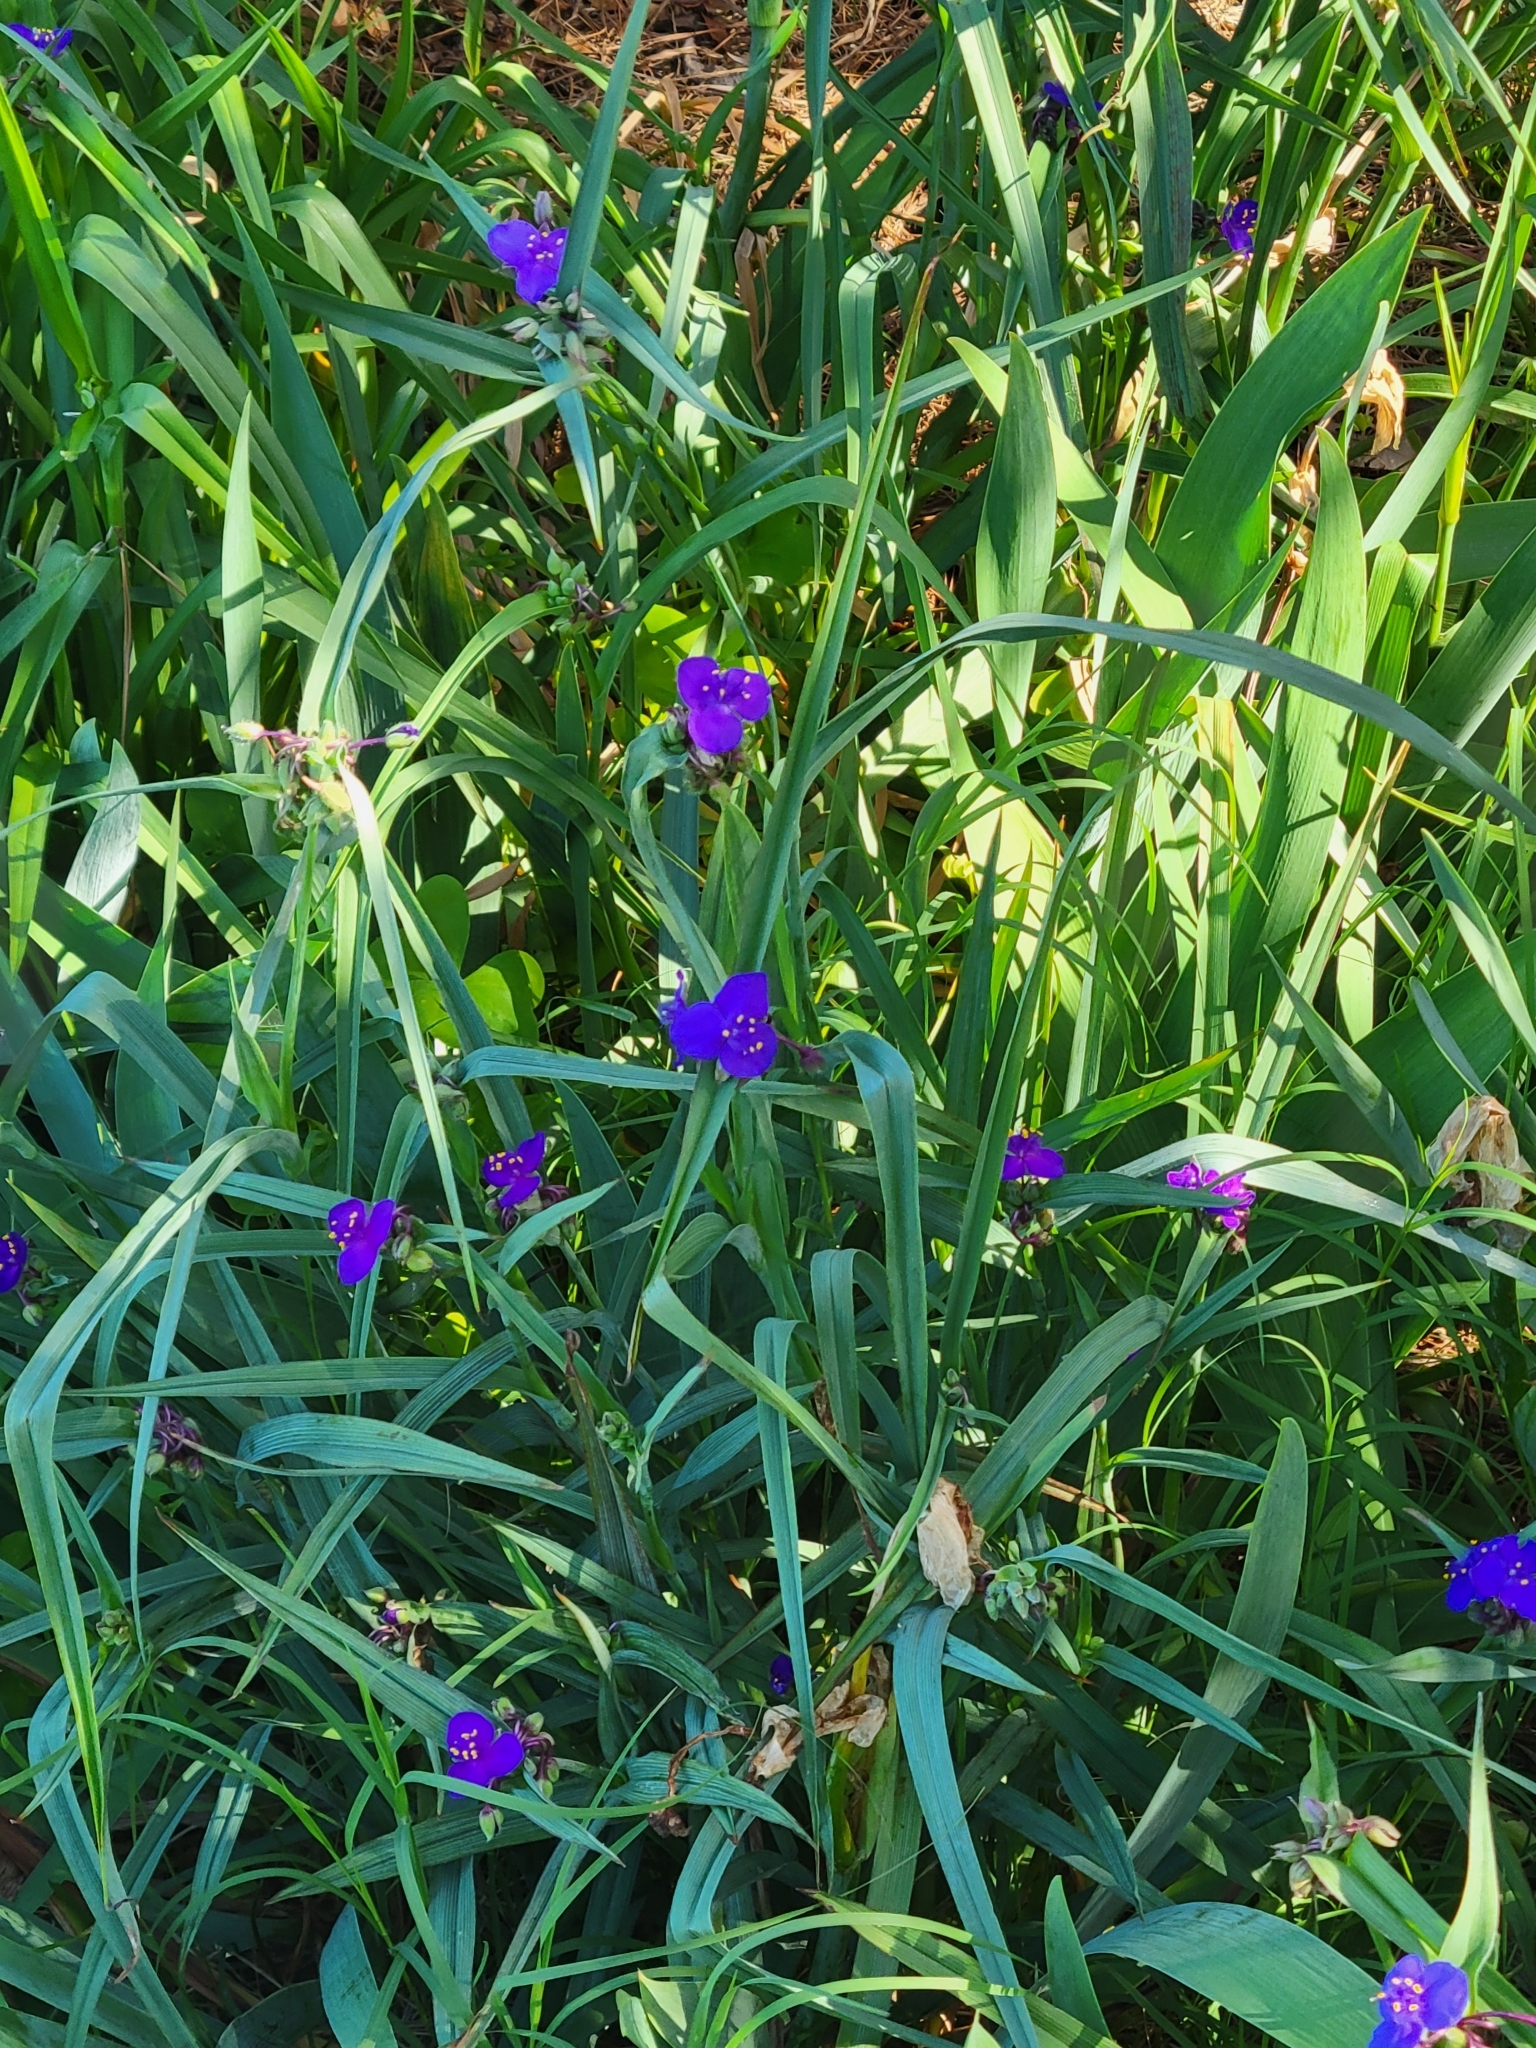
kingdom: Plantae
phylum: Tracheophyta
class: Liliopsida
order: Commelinales
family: Commelinaceae
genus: Tradescantia
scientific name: Tradescantia virginiana
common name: Spiderwort
